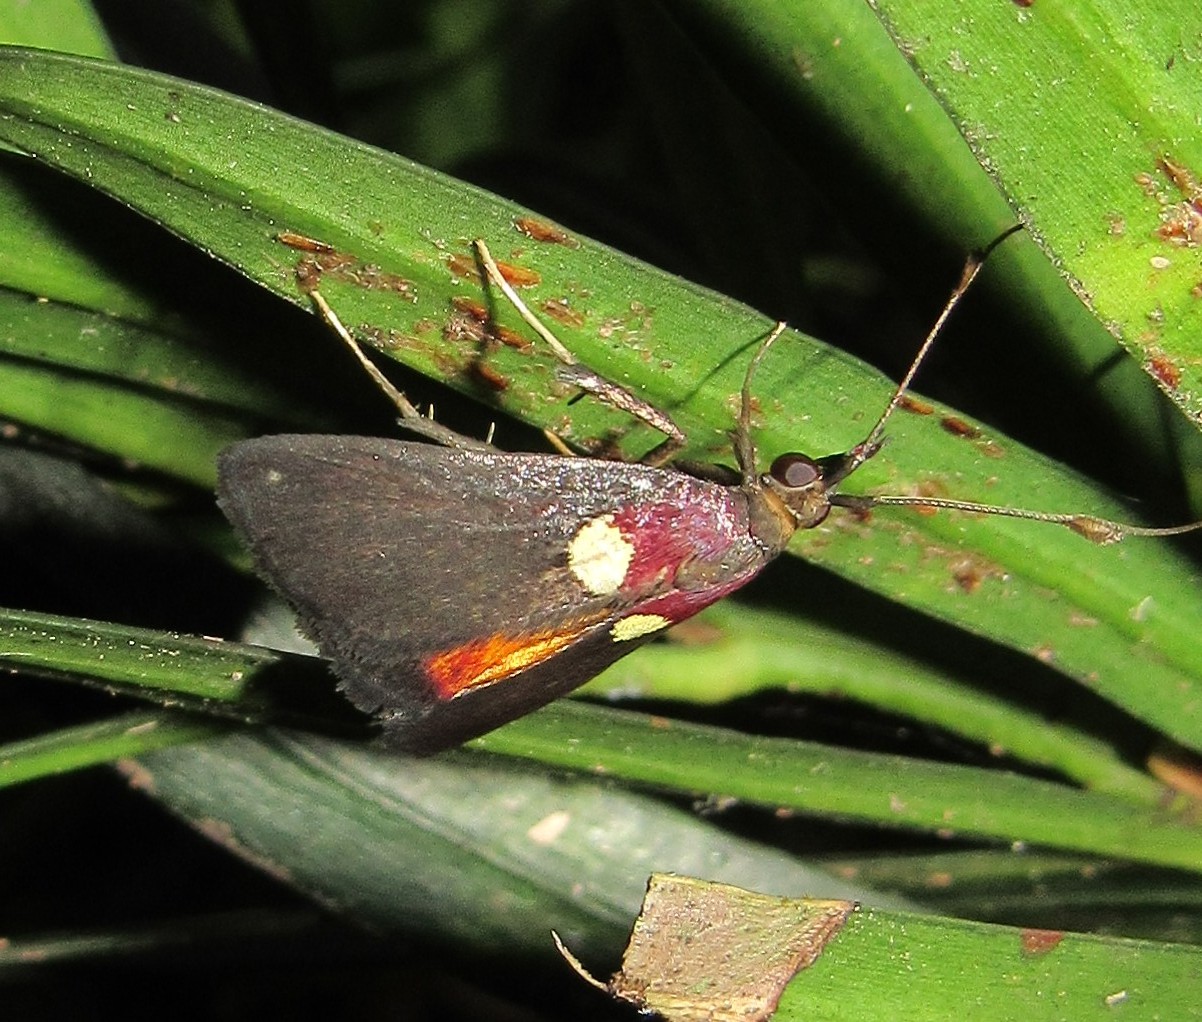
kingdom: Animalia
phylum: Arthropoda
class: Insecta
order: Lepidoptera
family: Pyralidae
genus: Semnia
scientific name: Semnia auritalis
